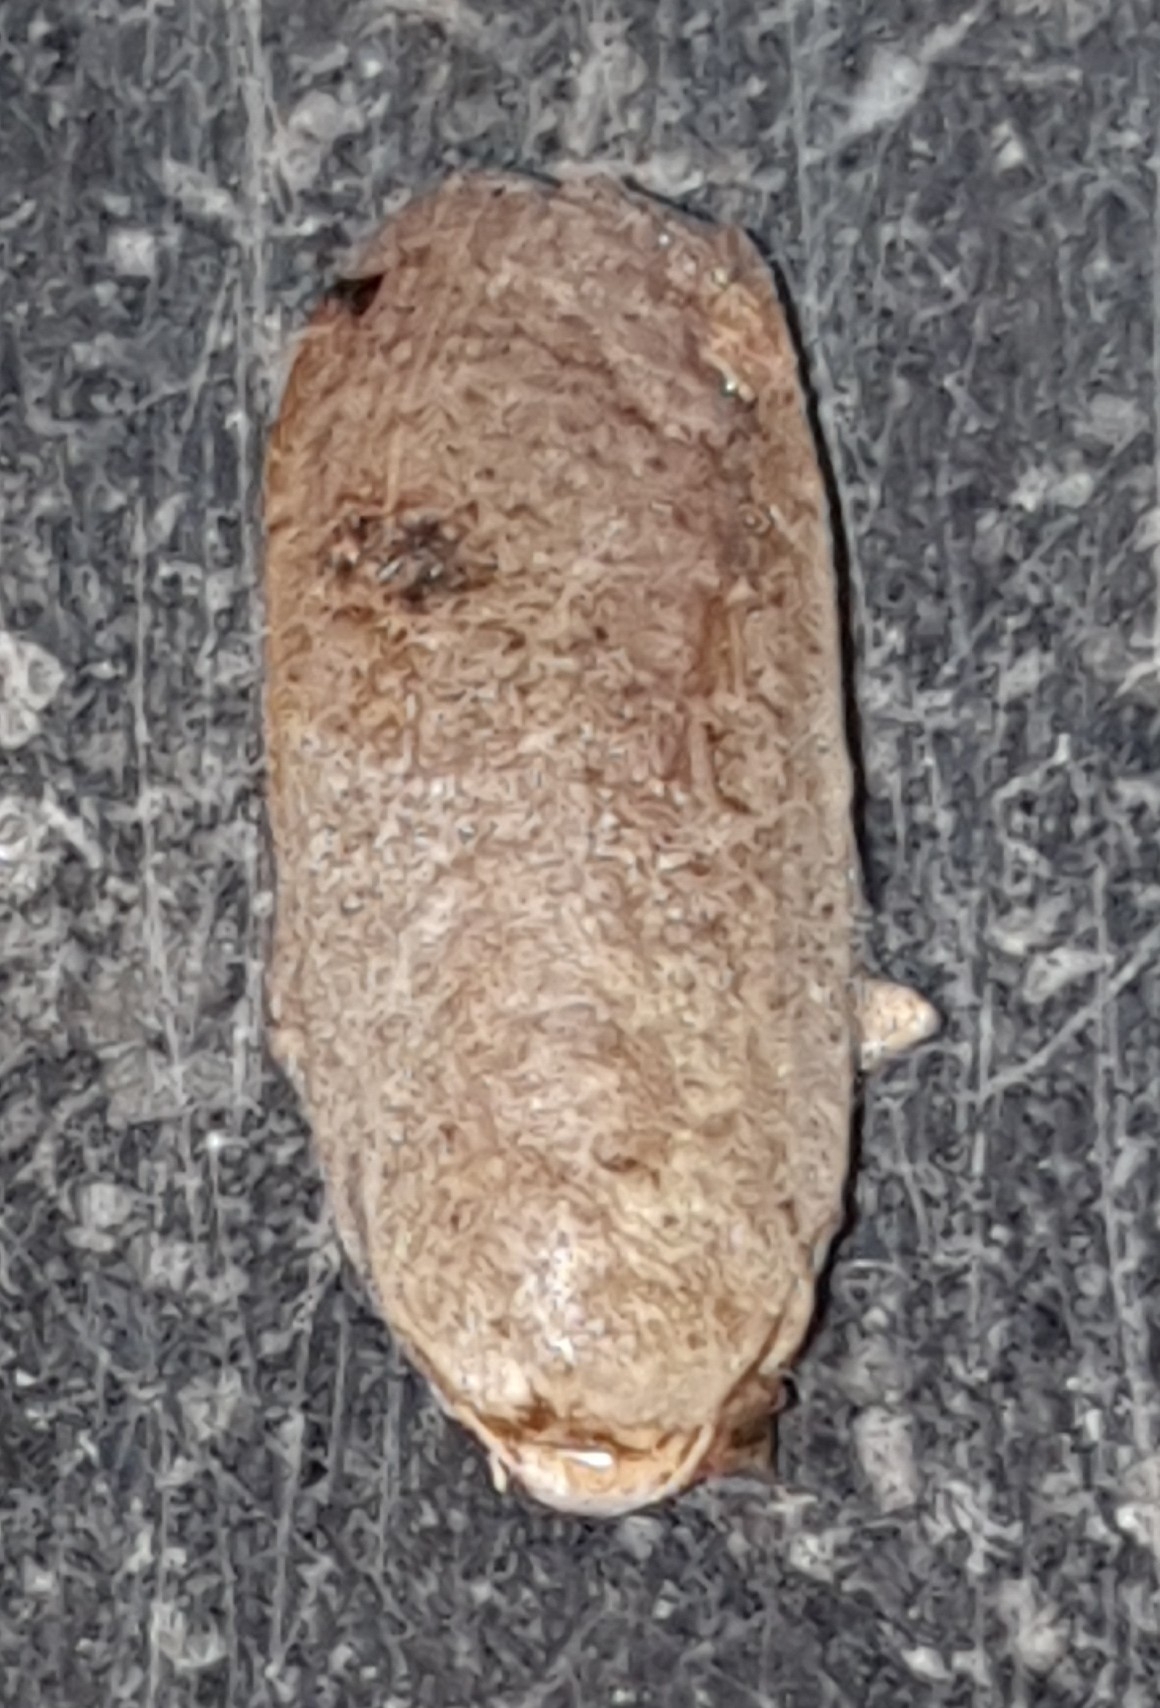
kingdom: Animalia
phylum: Arthropoda
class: Insecta
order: Lepidoptera
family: Noctuidae
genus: Noctua
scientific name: Noctua pronuba
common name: Large yellow underwing
